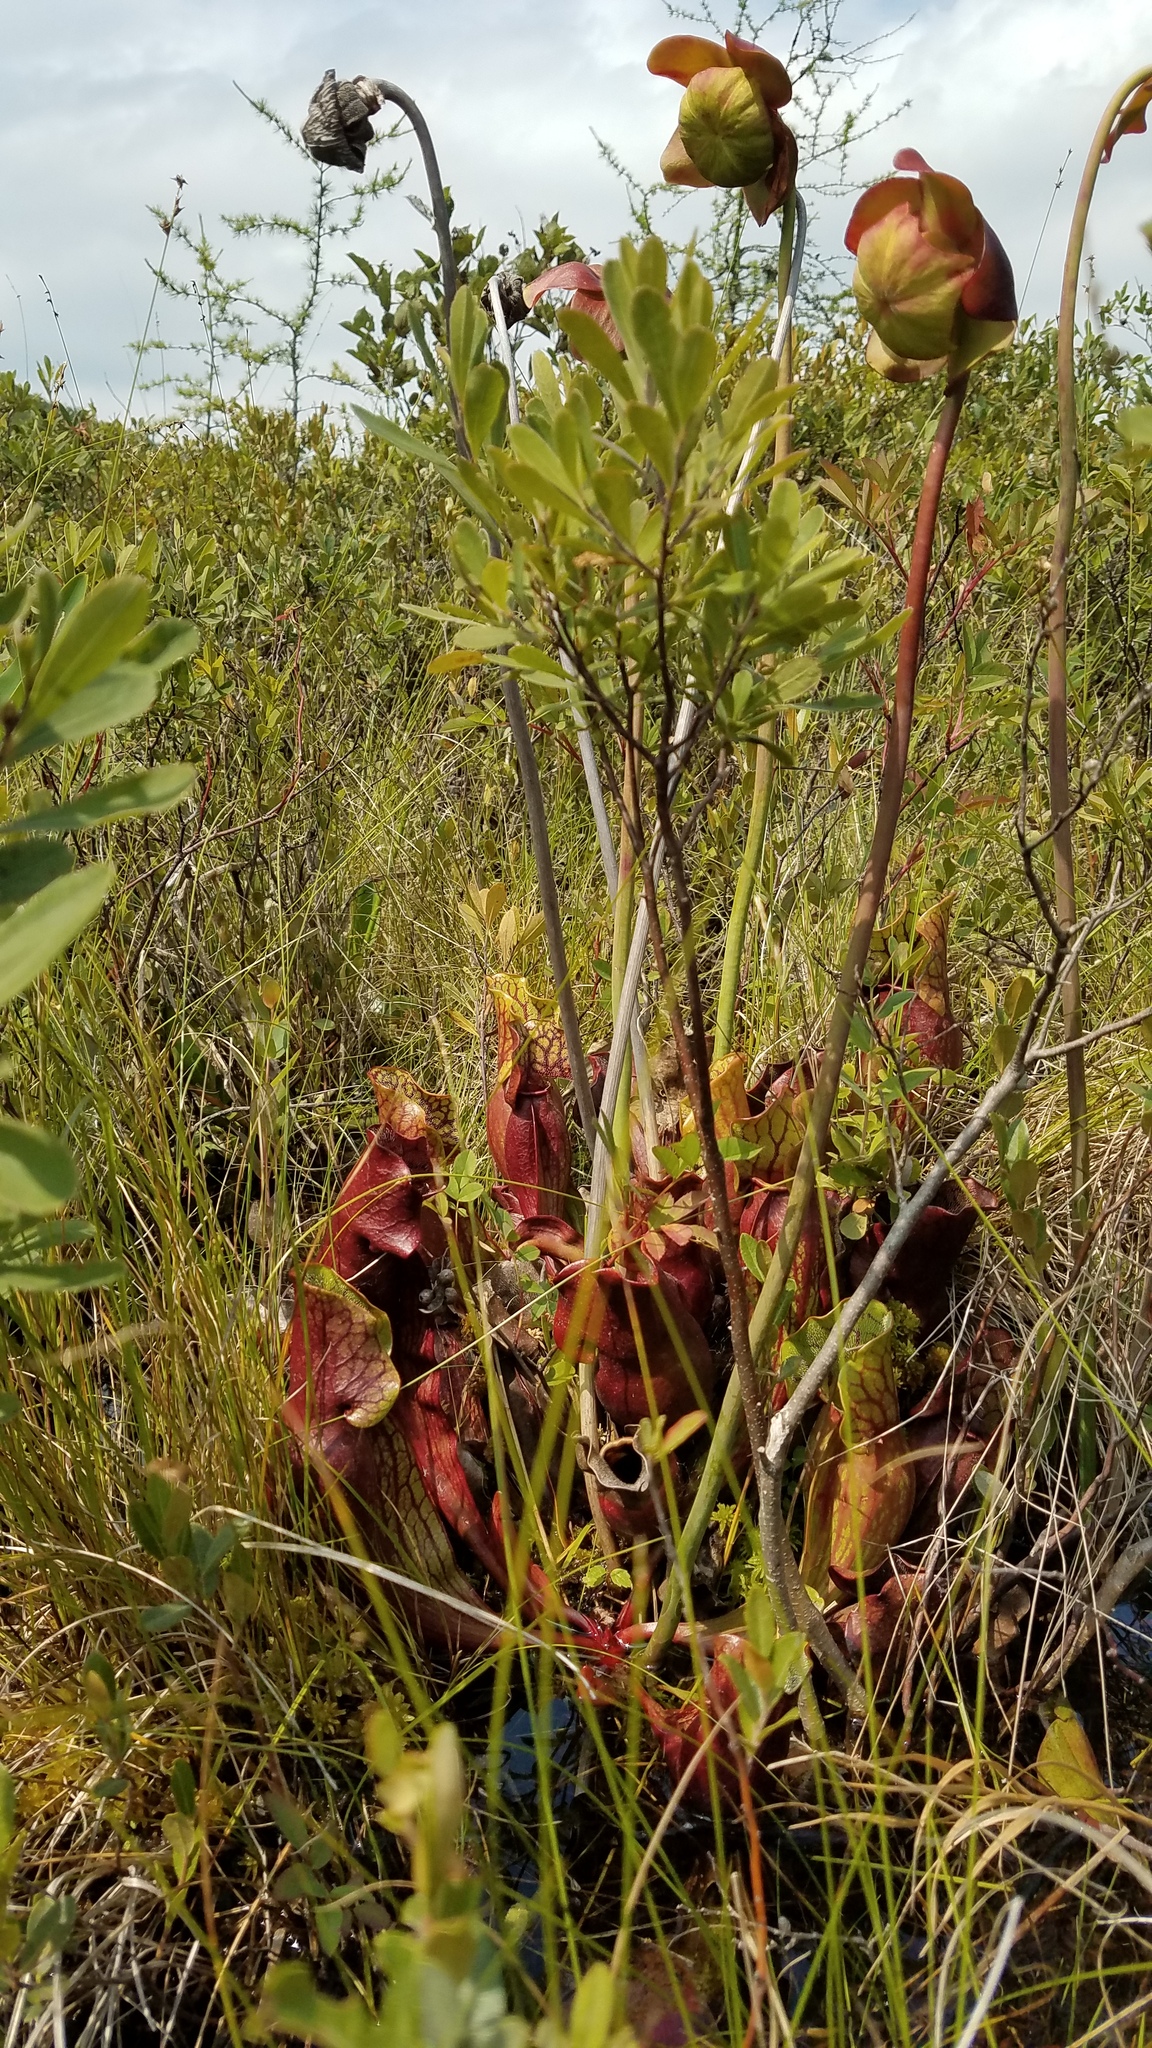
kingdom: Plantae
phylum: Tracheophyta
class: Magnoliopsida
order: Ericales
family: Sarraceniaceae
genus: Sarracenia
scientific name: Sarracenia purpurea
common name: Pitcherplant
